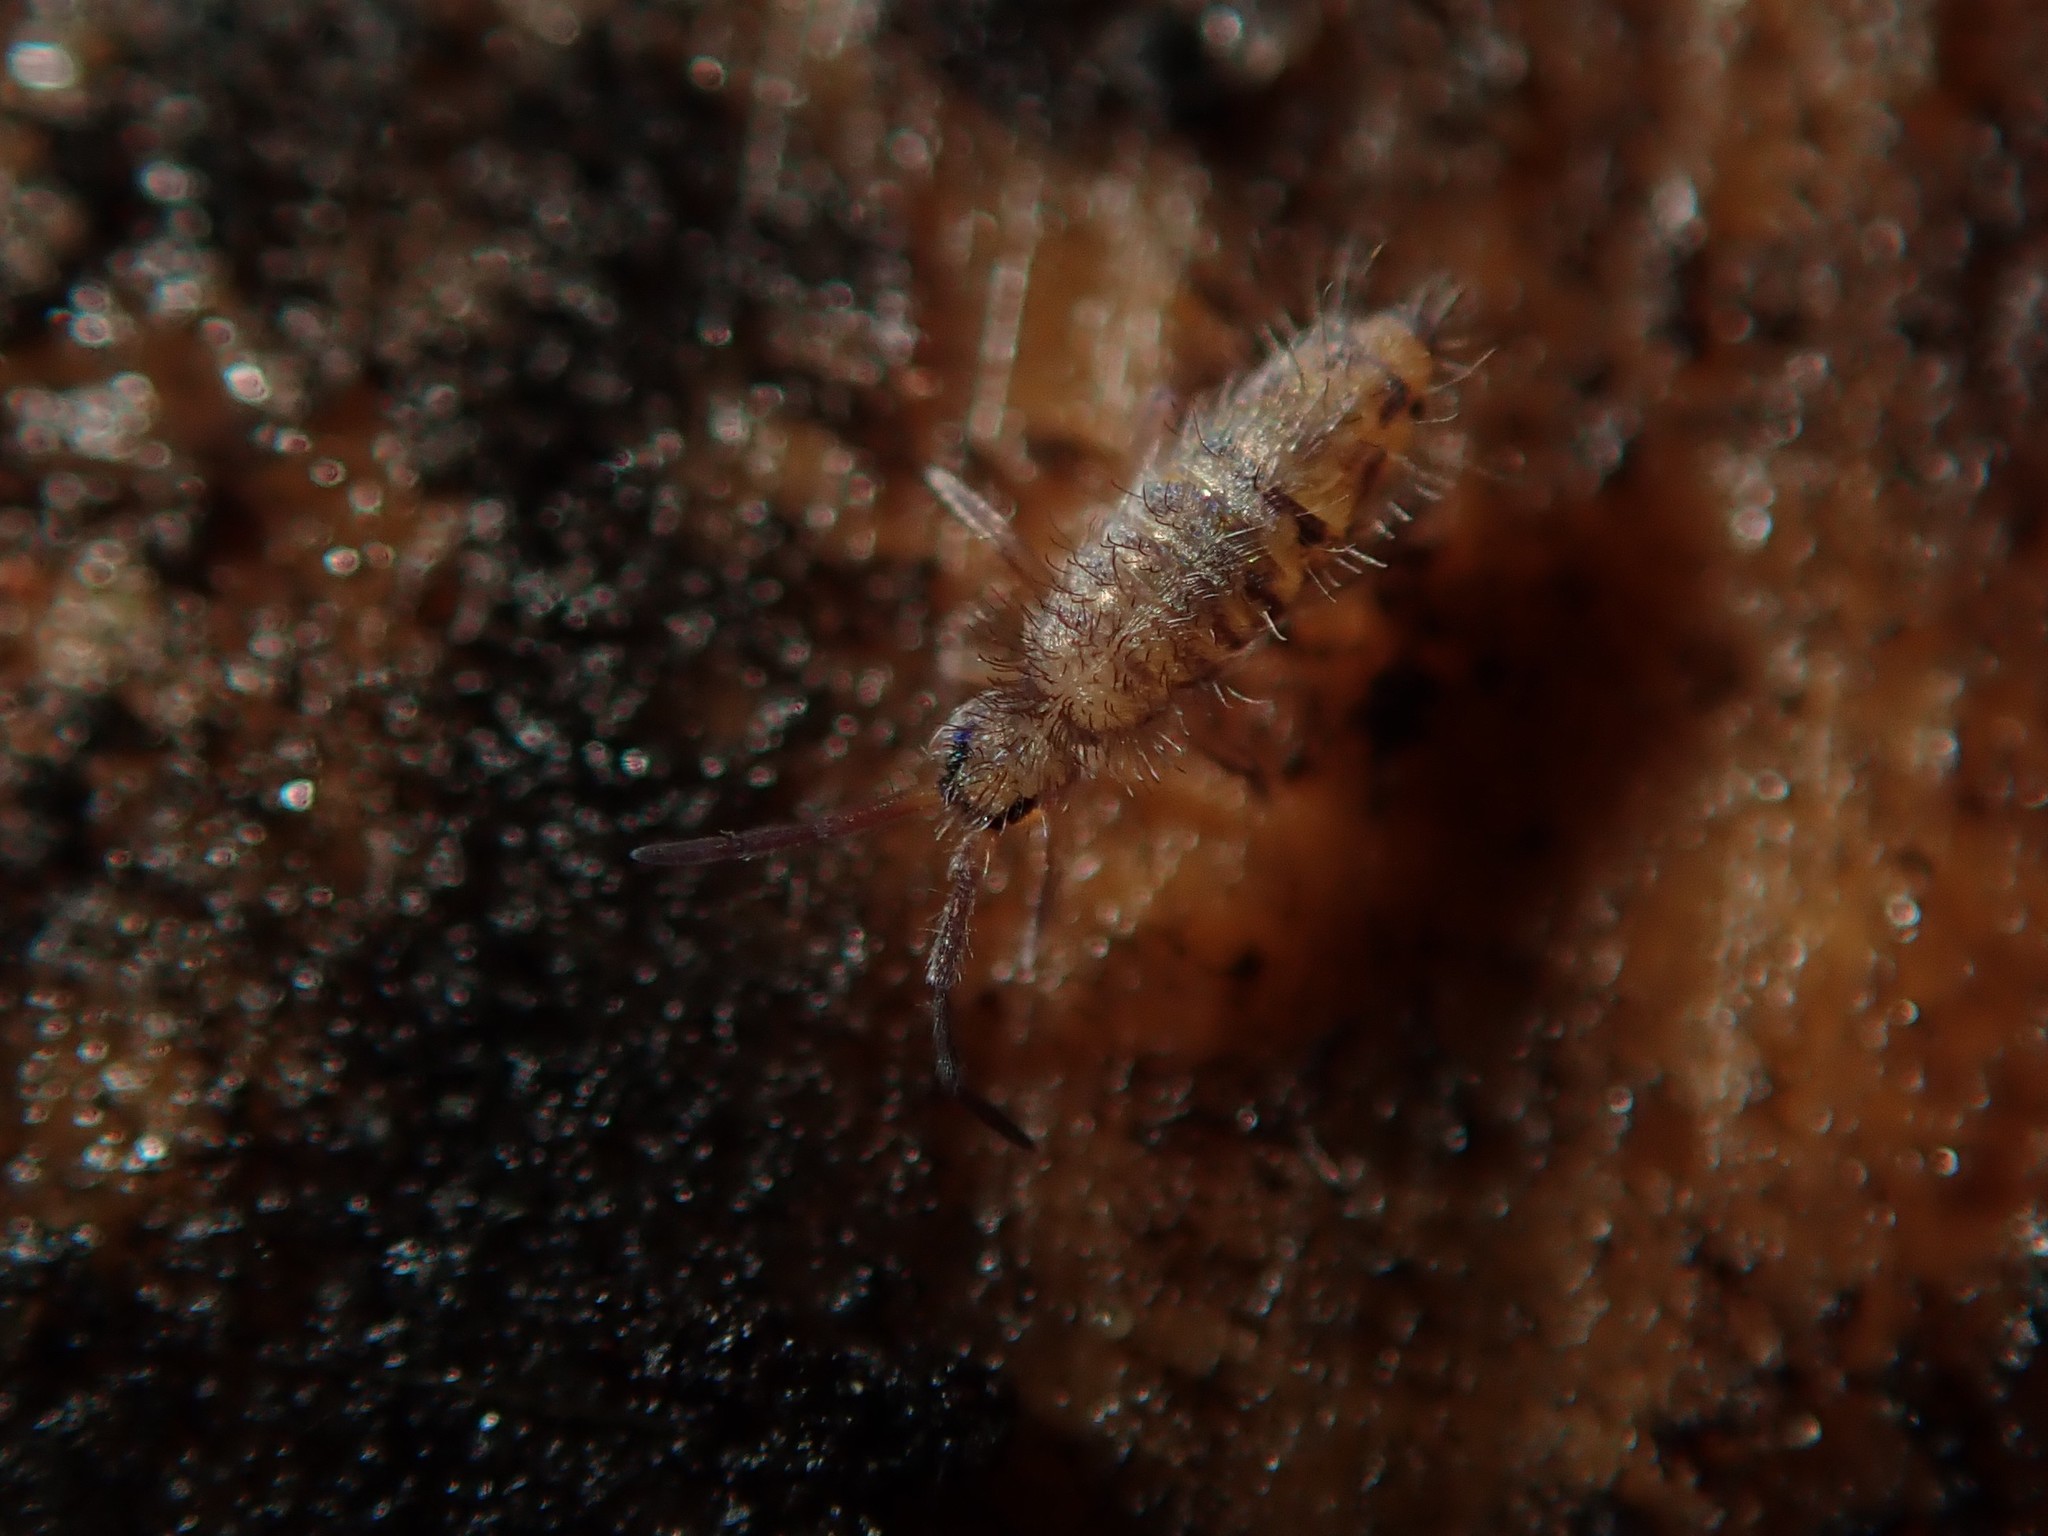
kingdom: Animalia
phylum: Arthropoda
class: Collembola
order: Entomobryomorpha
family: Entomobryidae
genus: Entomobrya
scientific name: Entomobrya multifasciata
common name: Springtail
